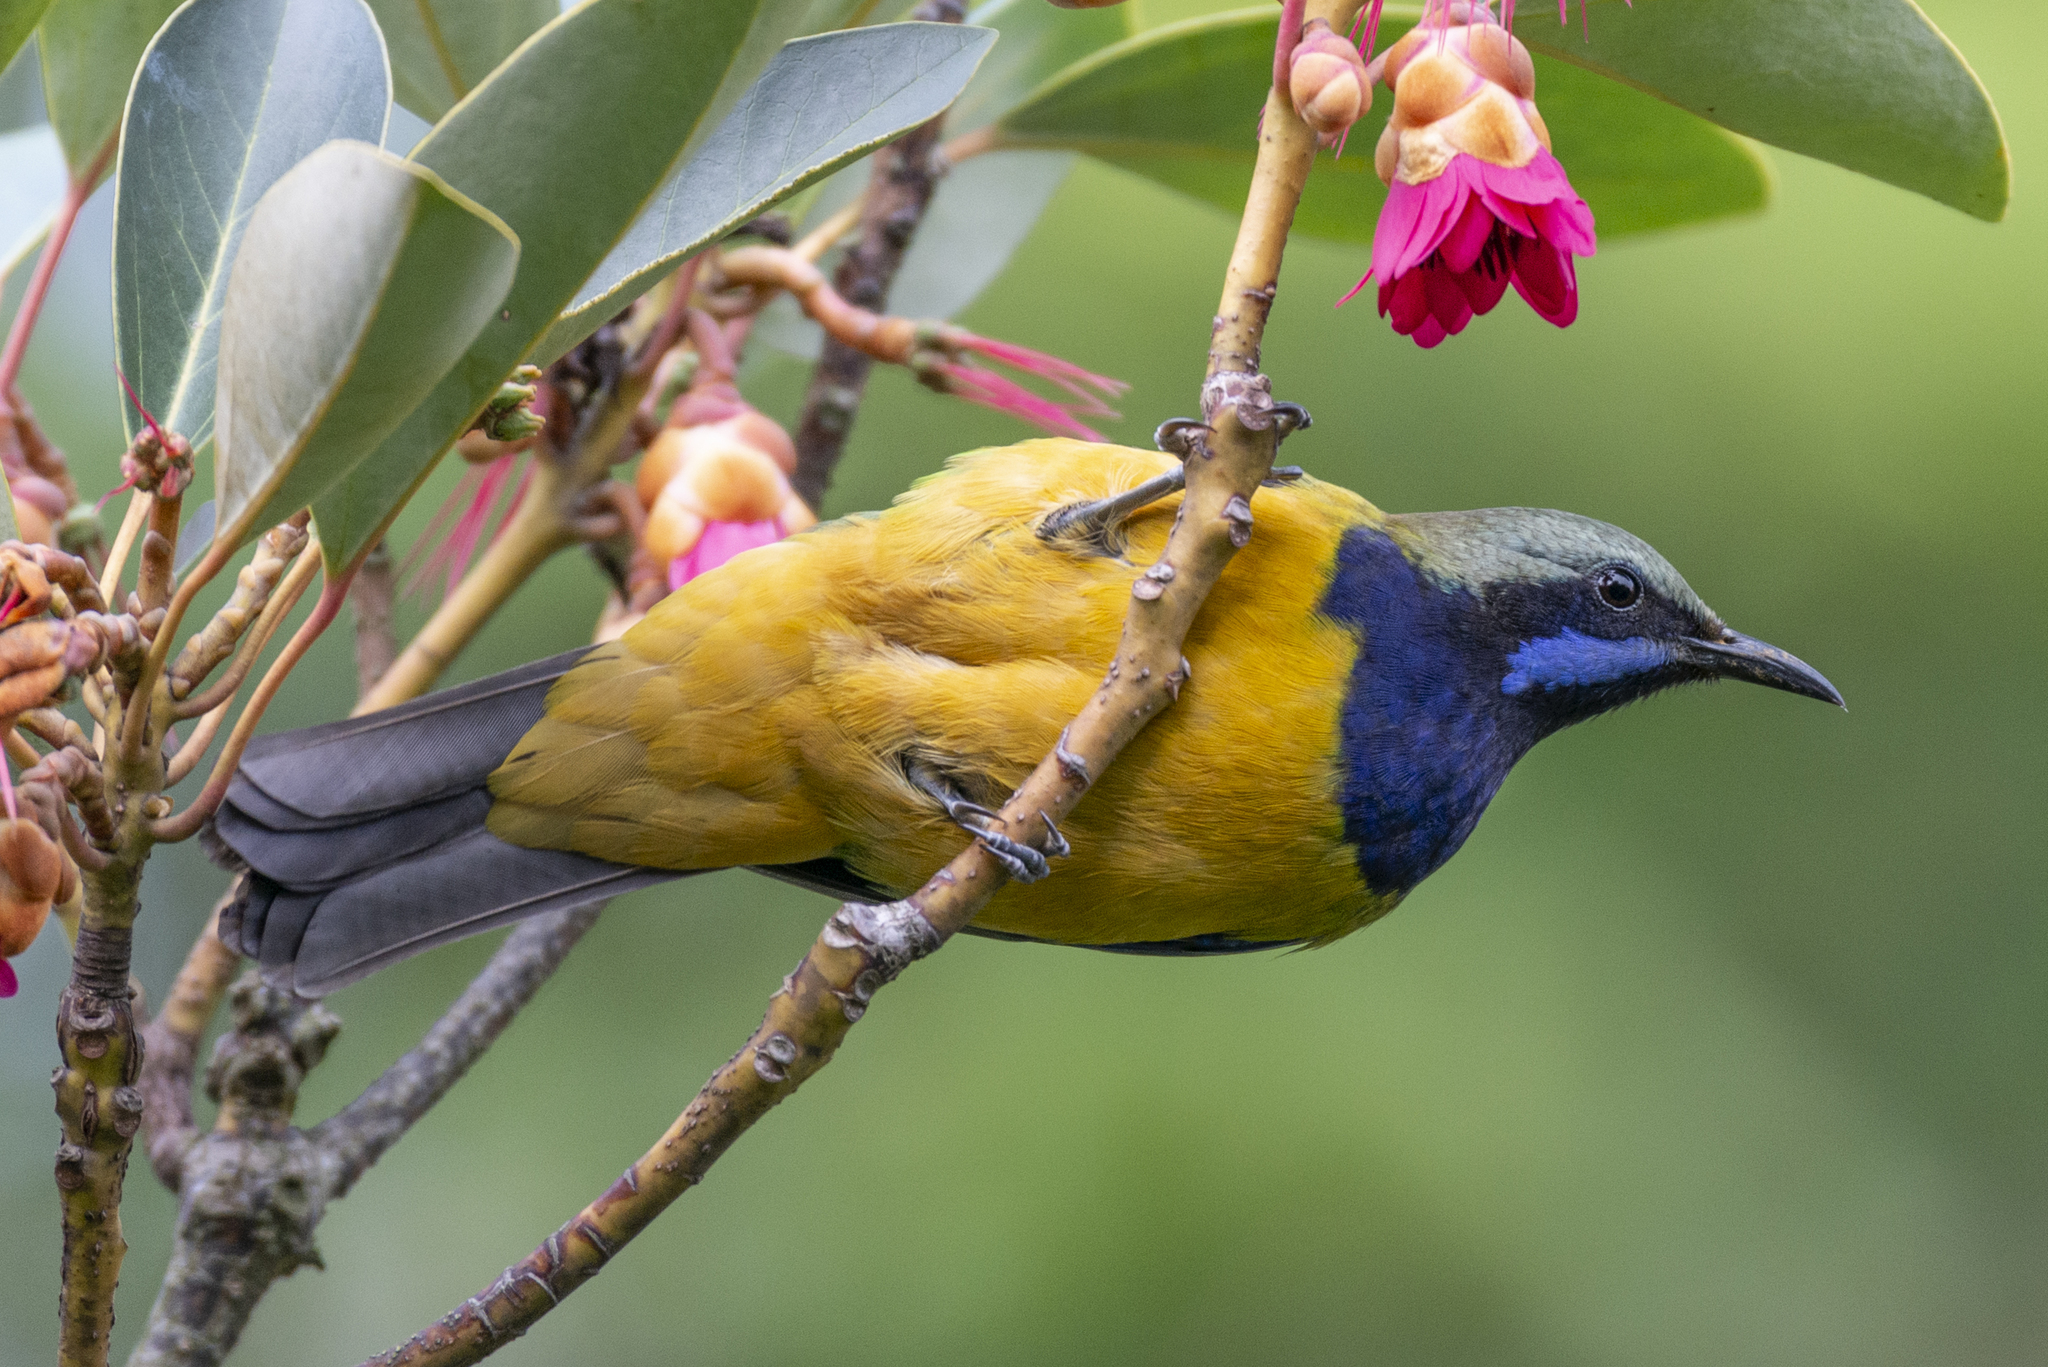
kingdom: Animalia
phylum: Chordata
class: Aves
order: Passeriformes
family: Chloropseidae
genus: Chloropsis
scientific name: Chloropsis hardwickii
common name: Orange-bellied leafbird
